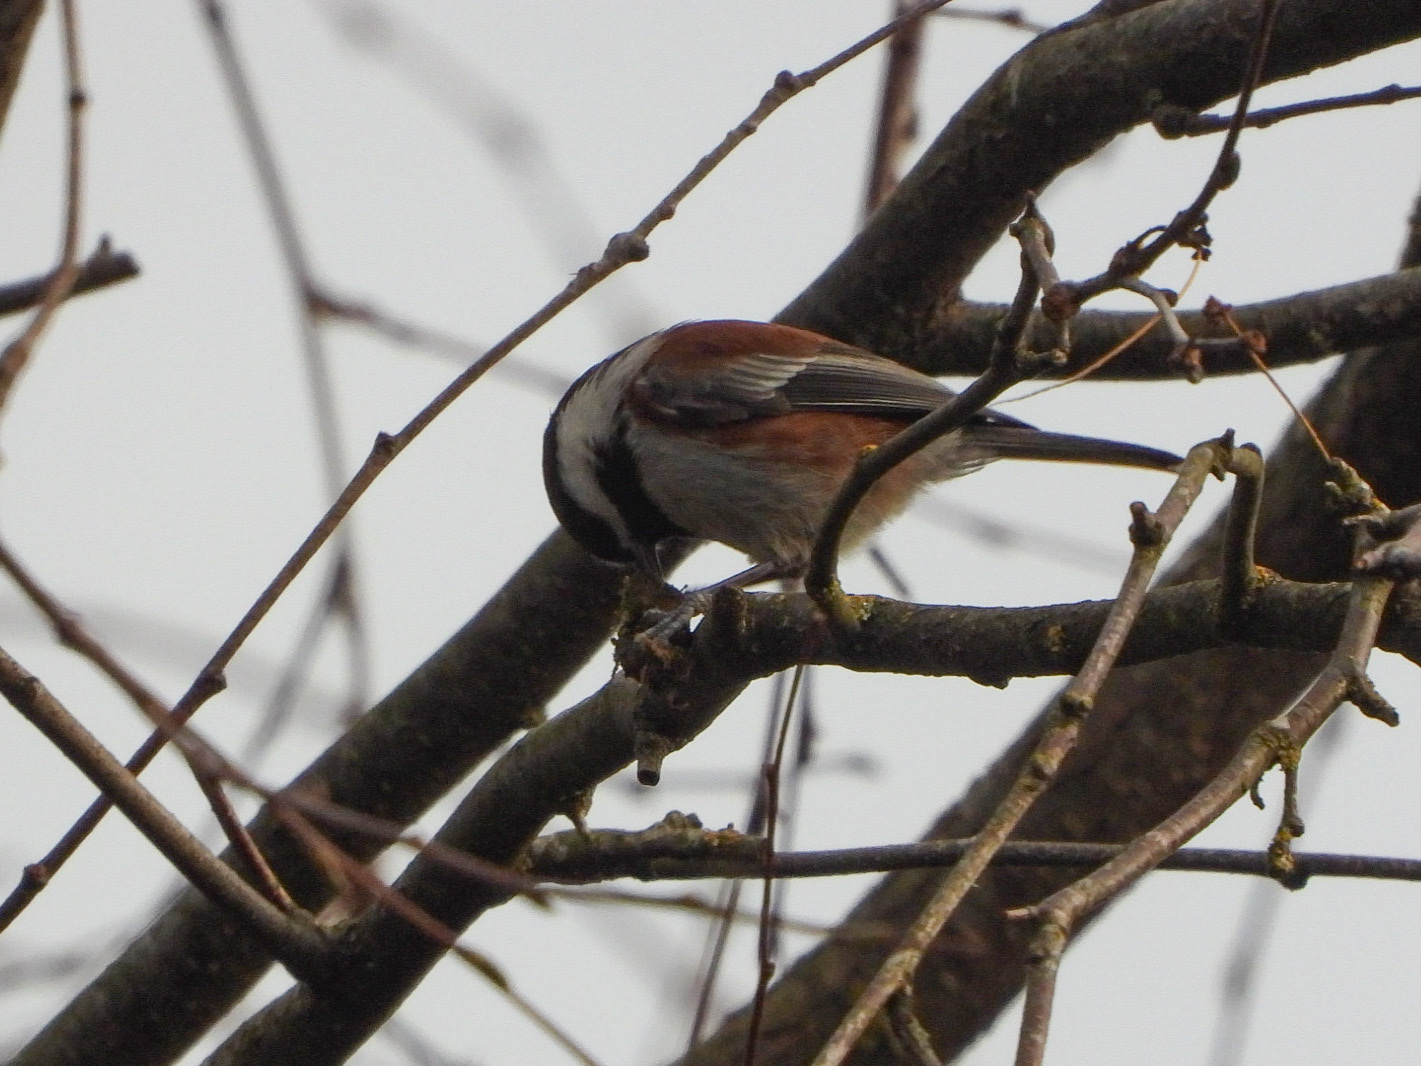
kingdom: Animalia
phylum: Chordata
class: Aves
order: Passeriformes
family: Paridae
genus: Poecile
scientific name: Poecile rufescens
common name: Chestnut-backed chickadee
